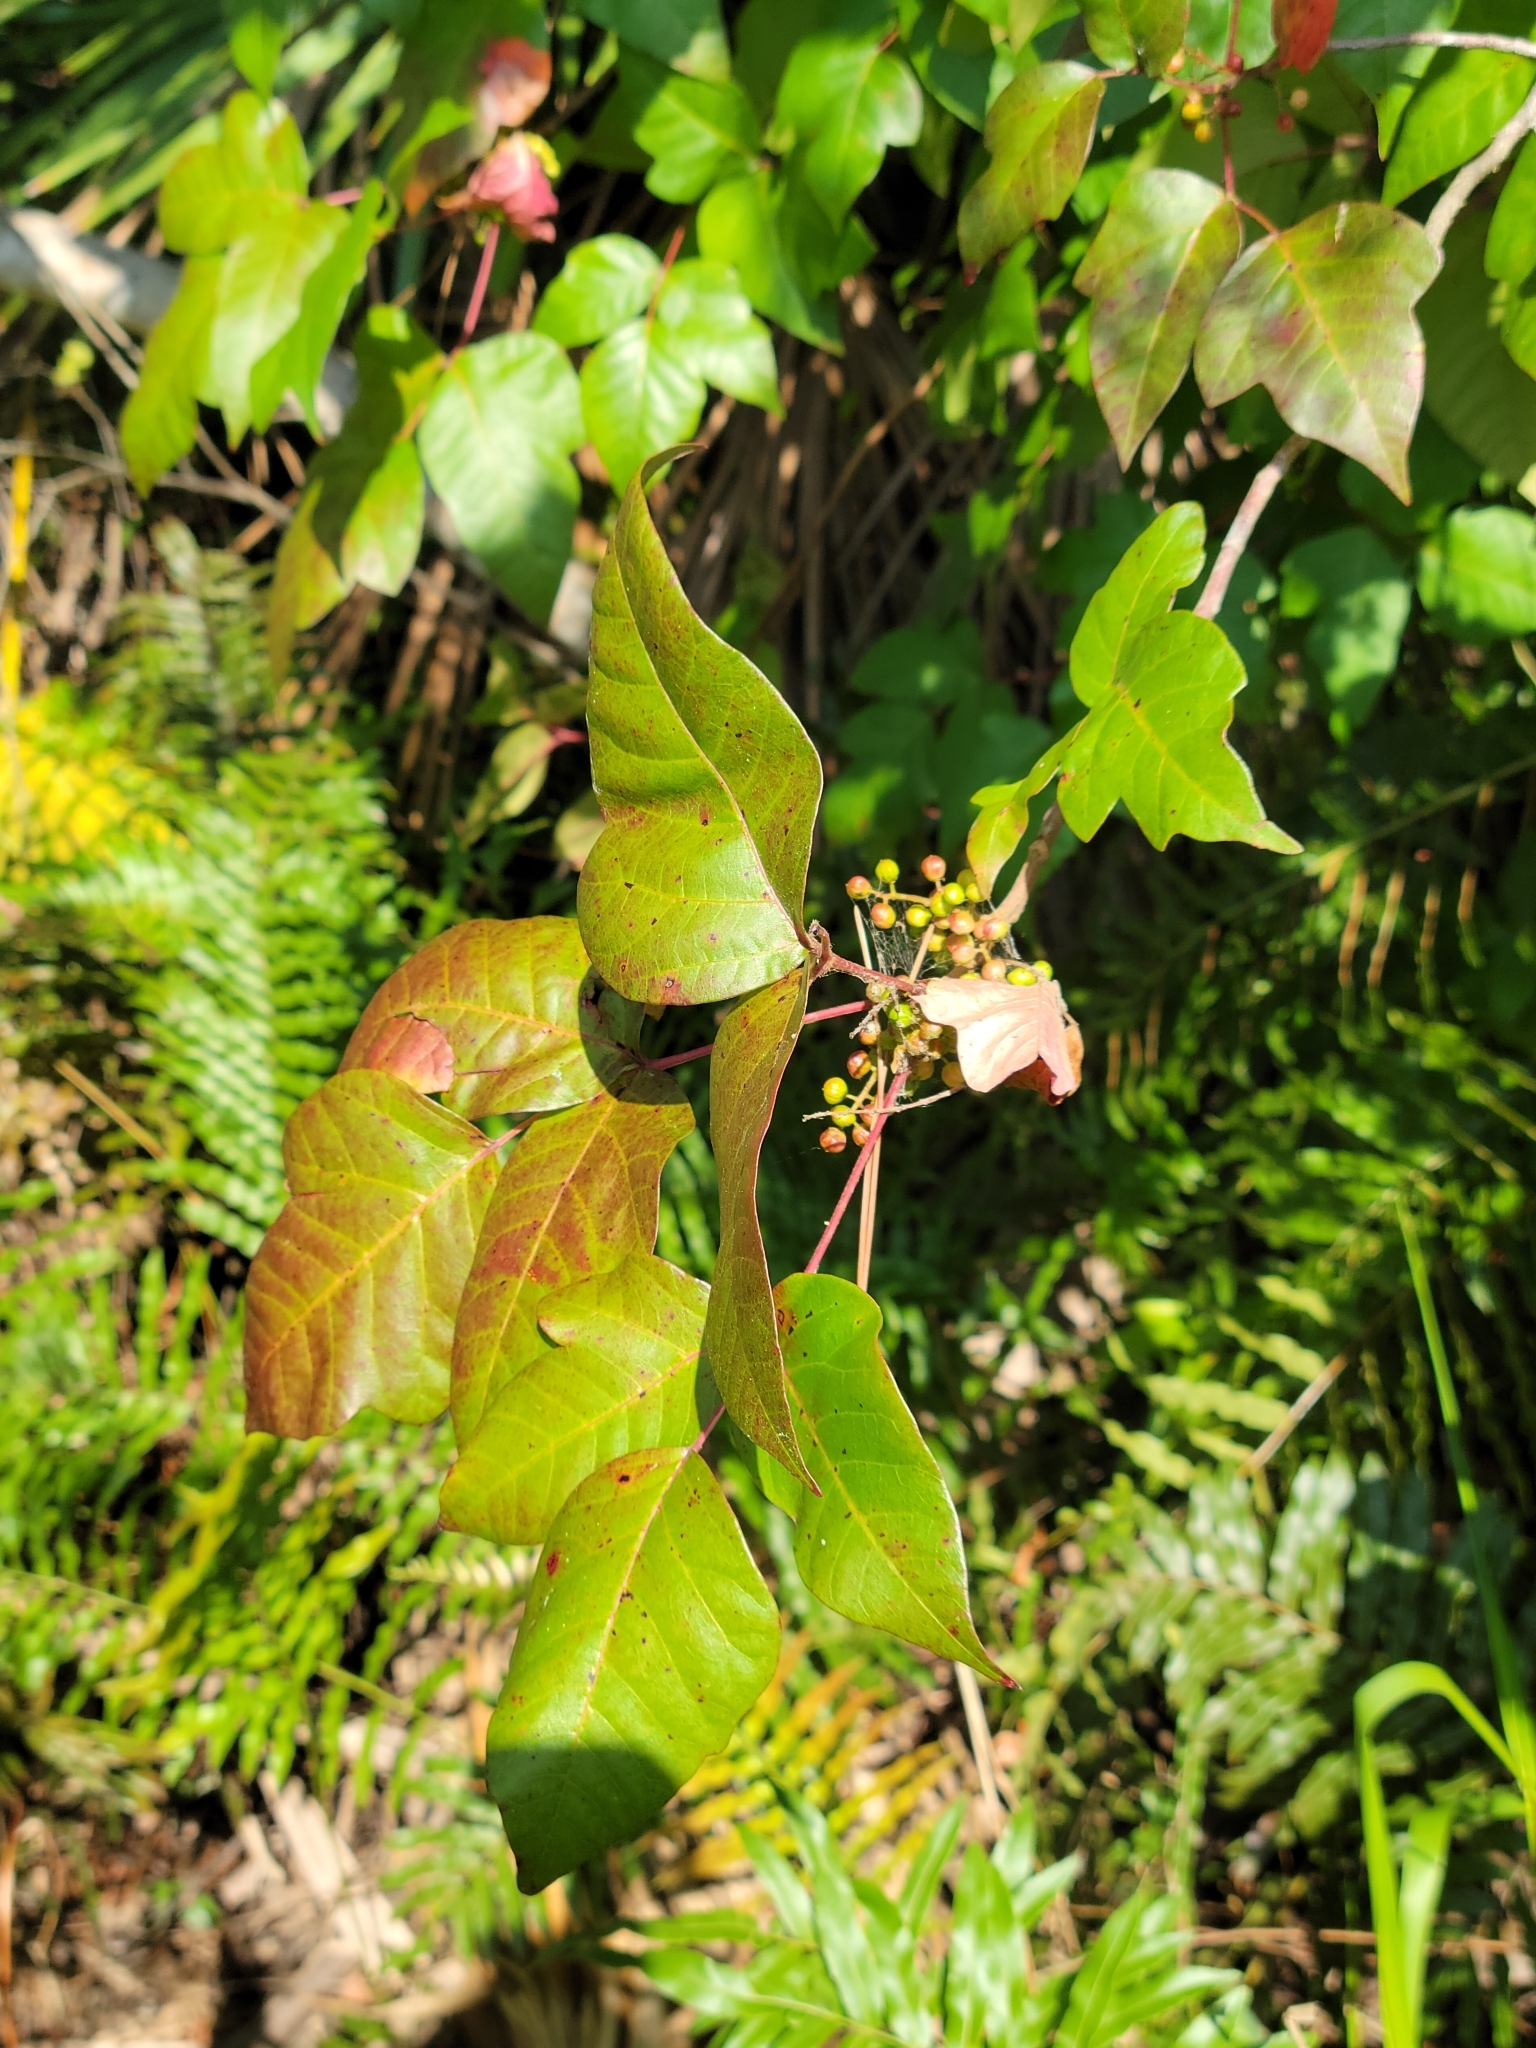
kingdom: Plantae
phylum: Tracheophyta
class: Magnoliopsida
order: Sapindales
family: Anacardiaceae
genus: Toxicodendron
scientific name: Toxicodendron radicans
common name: Poison ivy
